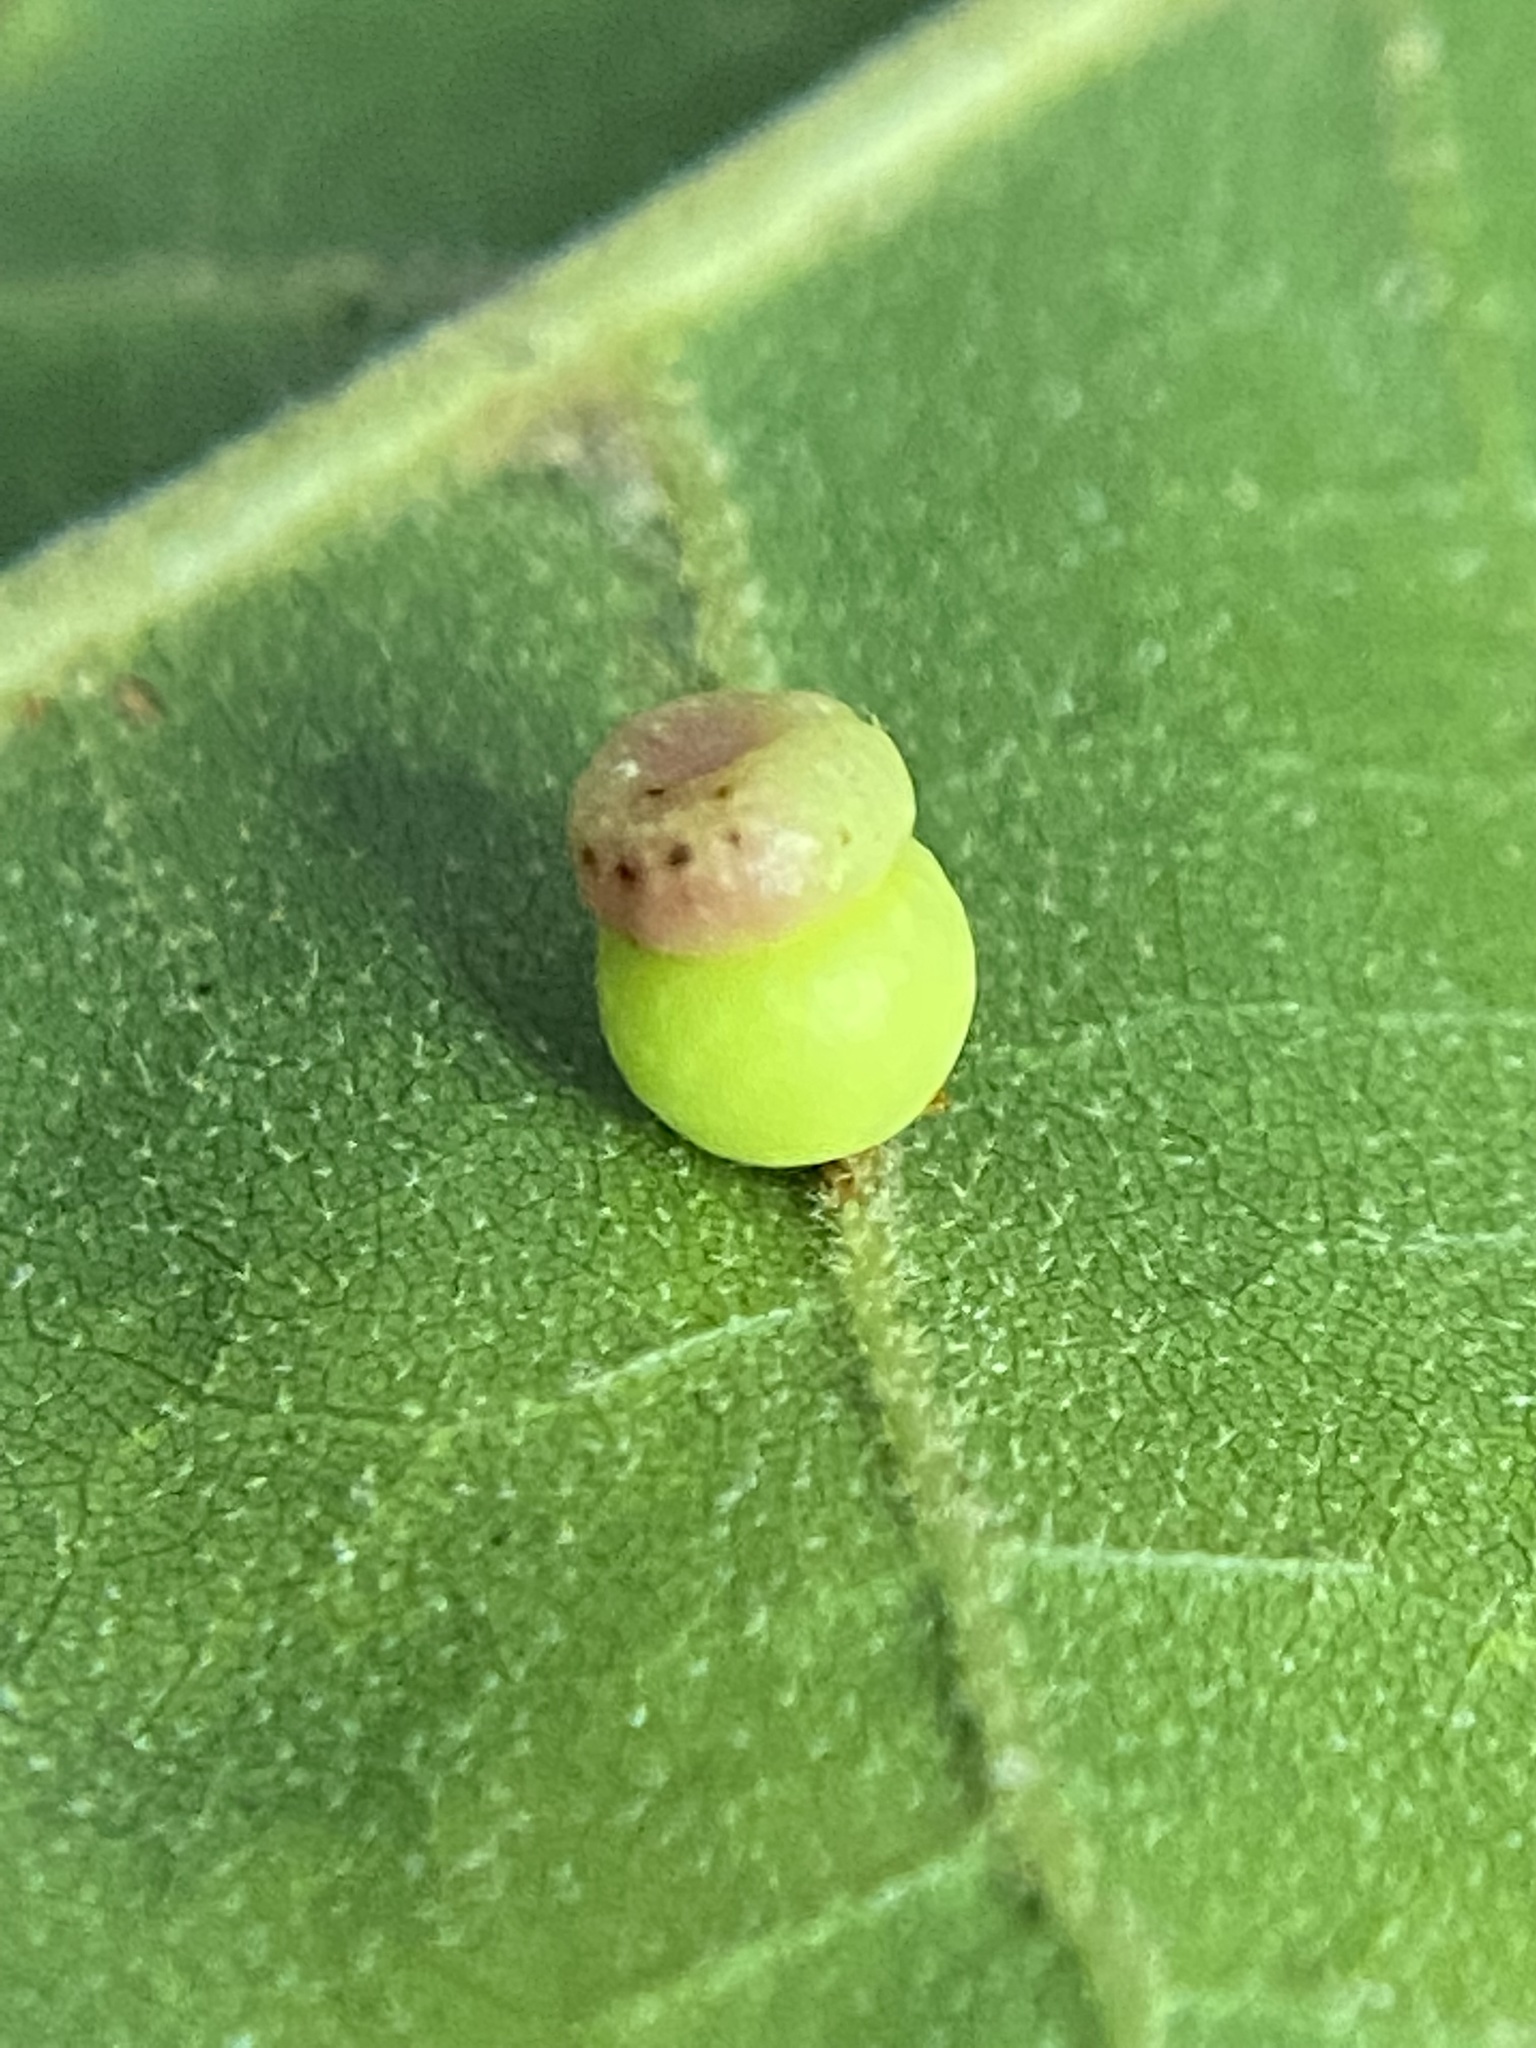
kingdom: Animalia
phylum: Arthropoda
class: Insecta
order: Hymenoptera
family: Cynipidae
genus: Kokkocynips
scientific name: Kokkocynips rileyi
